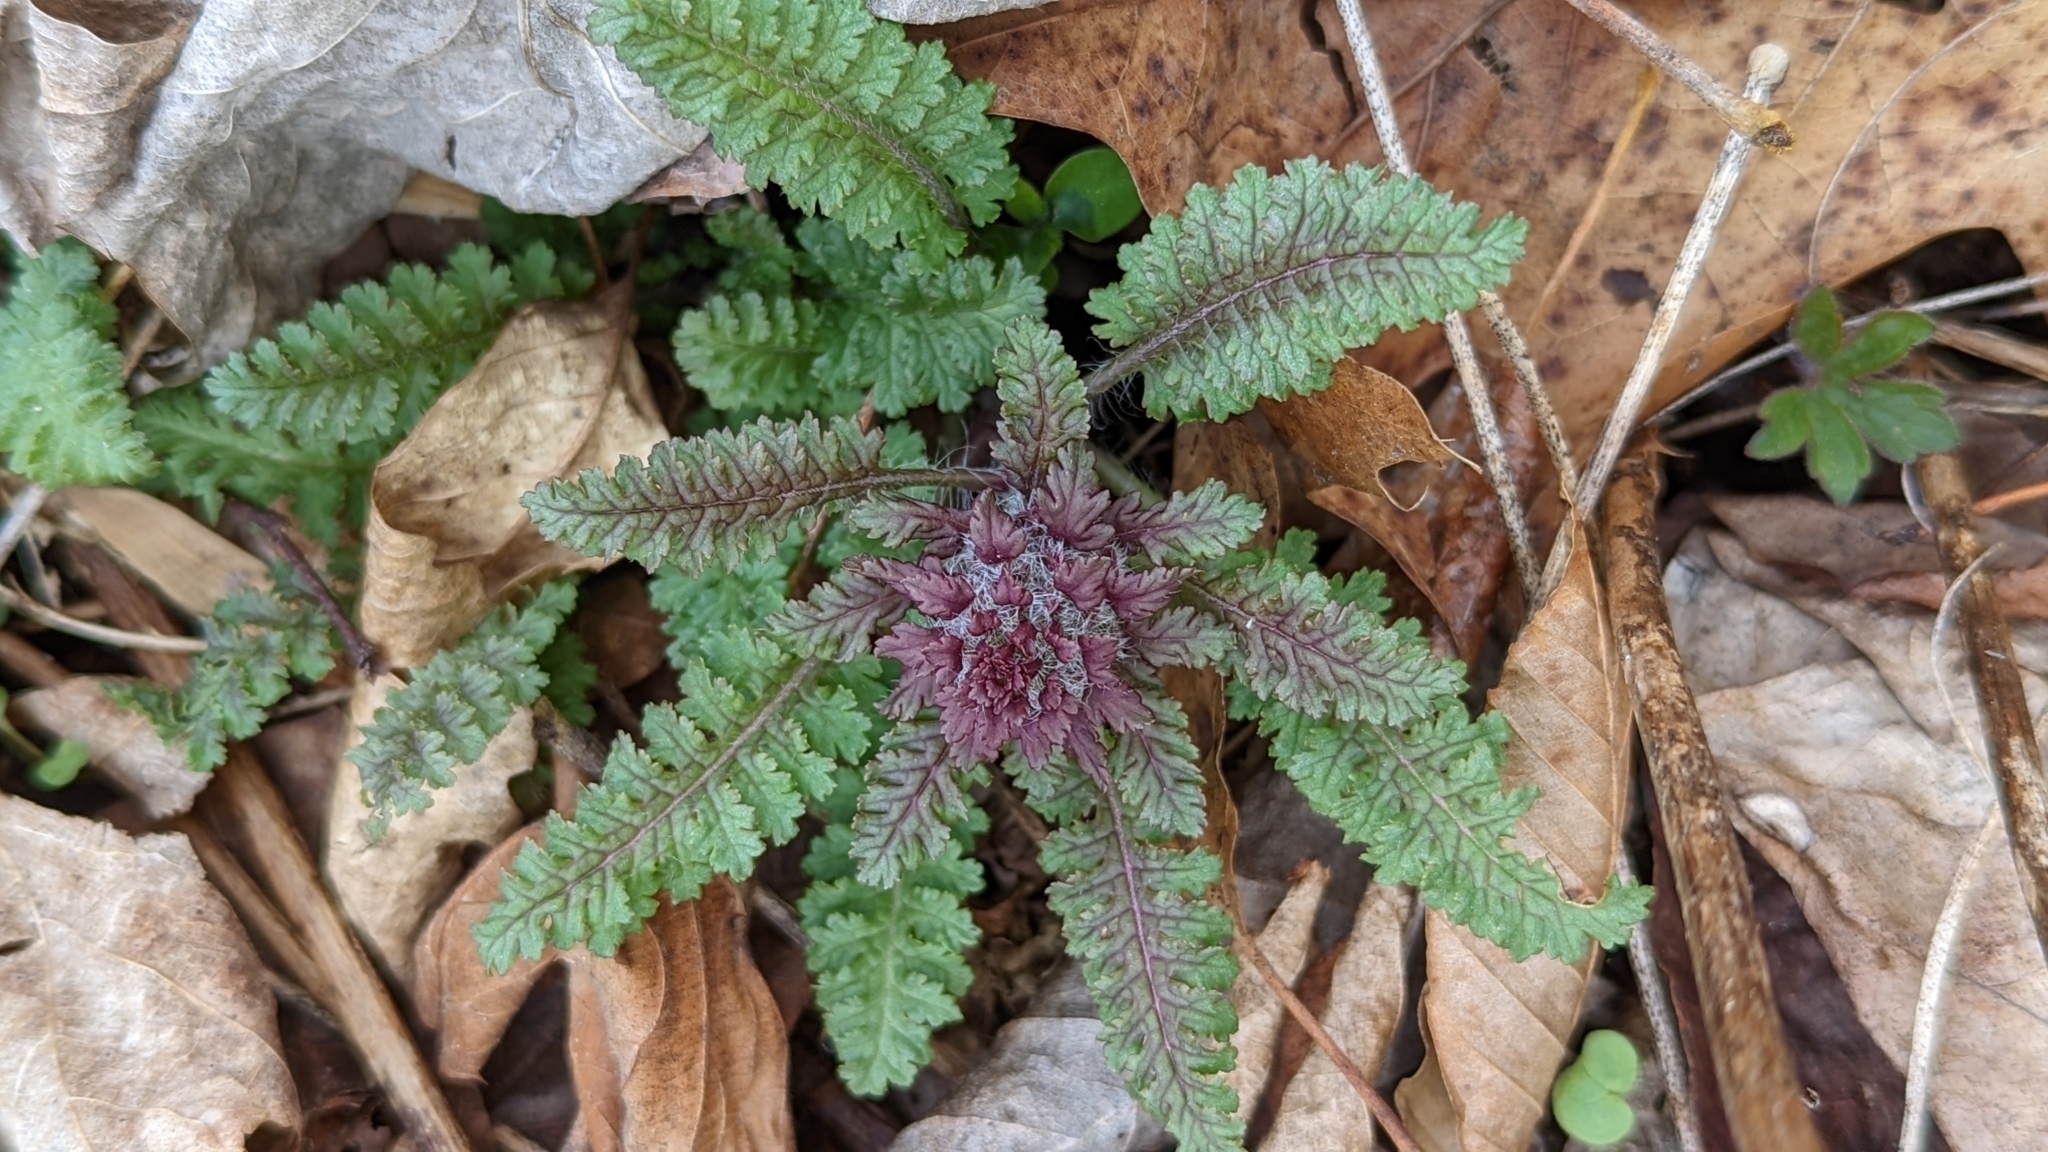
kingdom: Plantae
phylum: Tracheophyta
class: Magnoliopsida
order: Lamiales
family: Orobanchaceae
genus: Pedicularis
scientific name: Pedicularis canadensis
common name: Early lousewort
